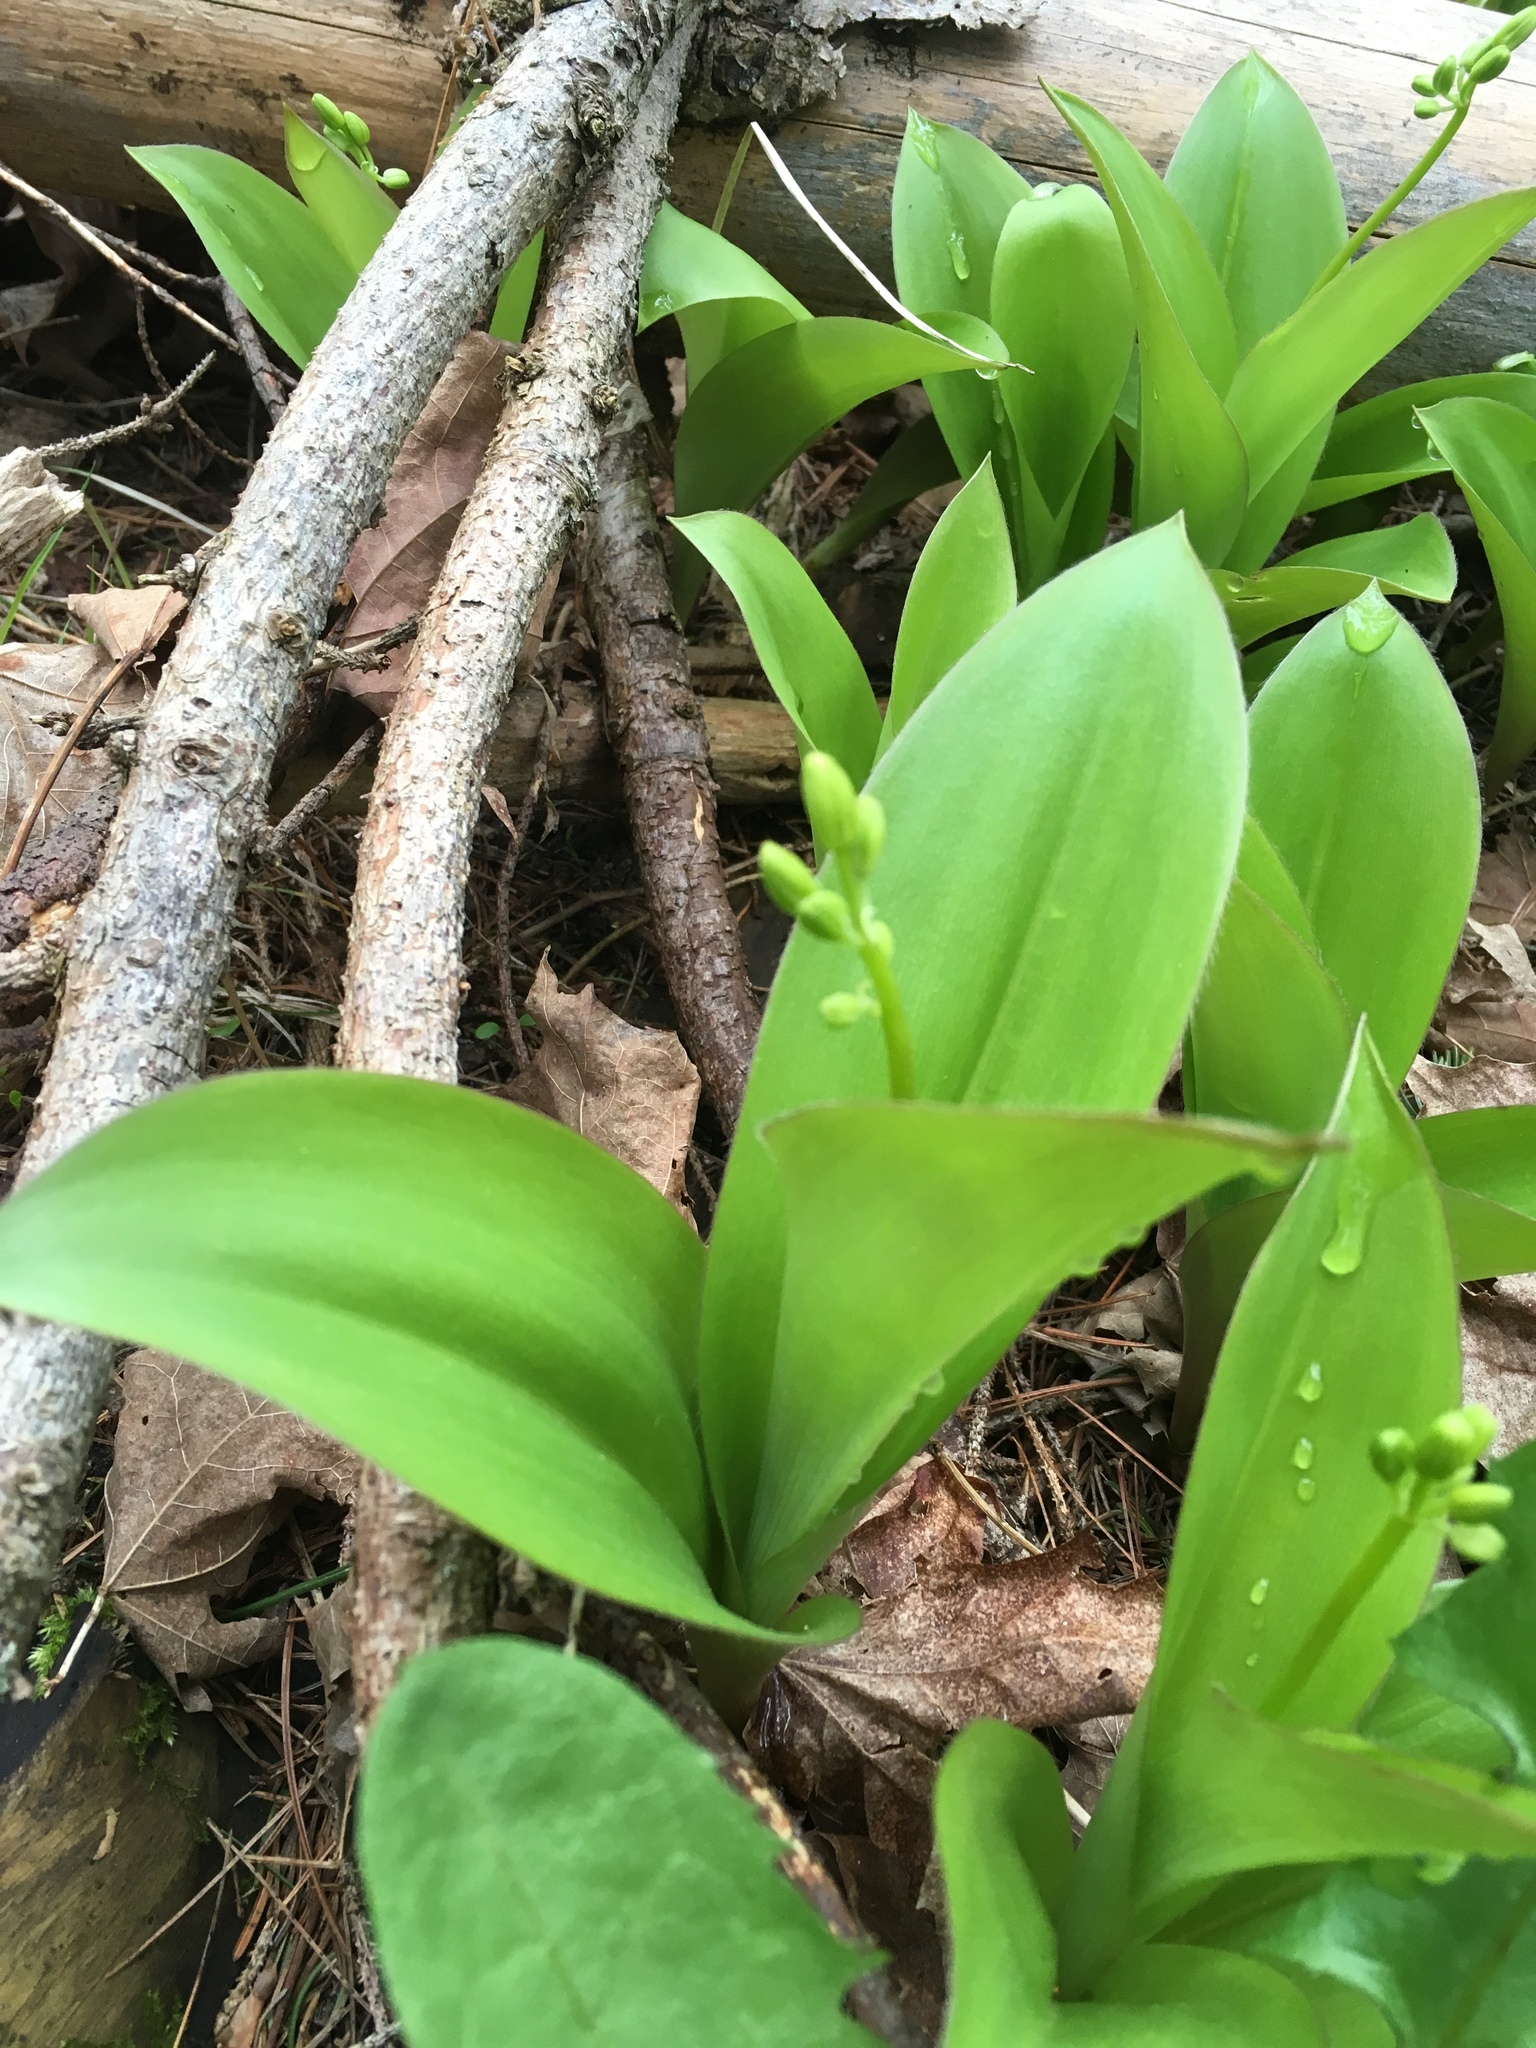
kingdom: Plantae
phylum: Tracheophyta
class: Liliopsida
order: Liliales
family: Liliaceae
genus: Clintonia
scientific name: Clintonia borealis
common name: Yellow clintonia
